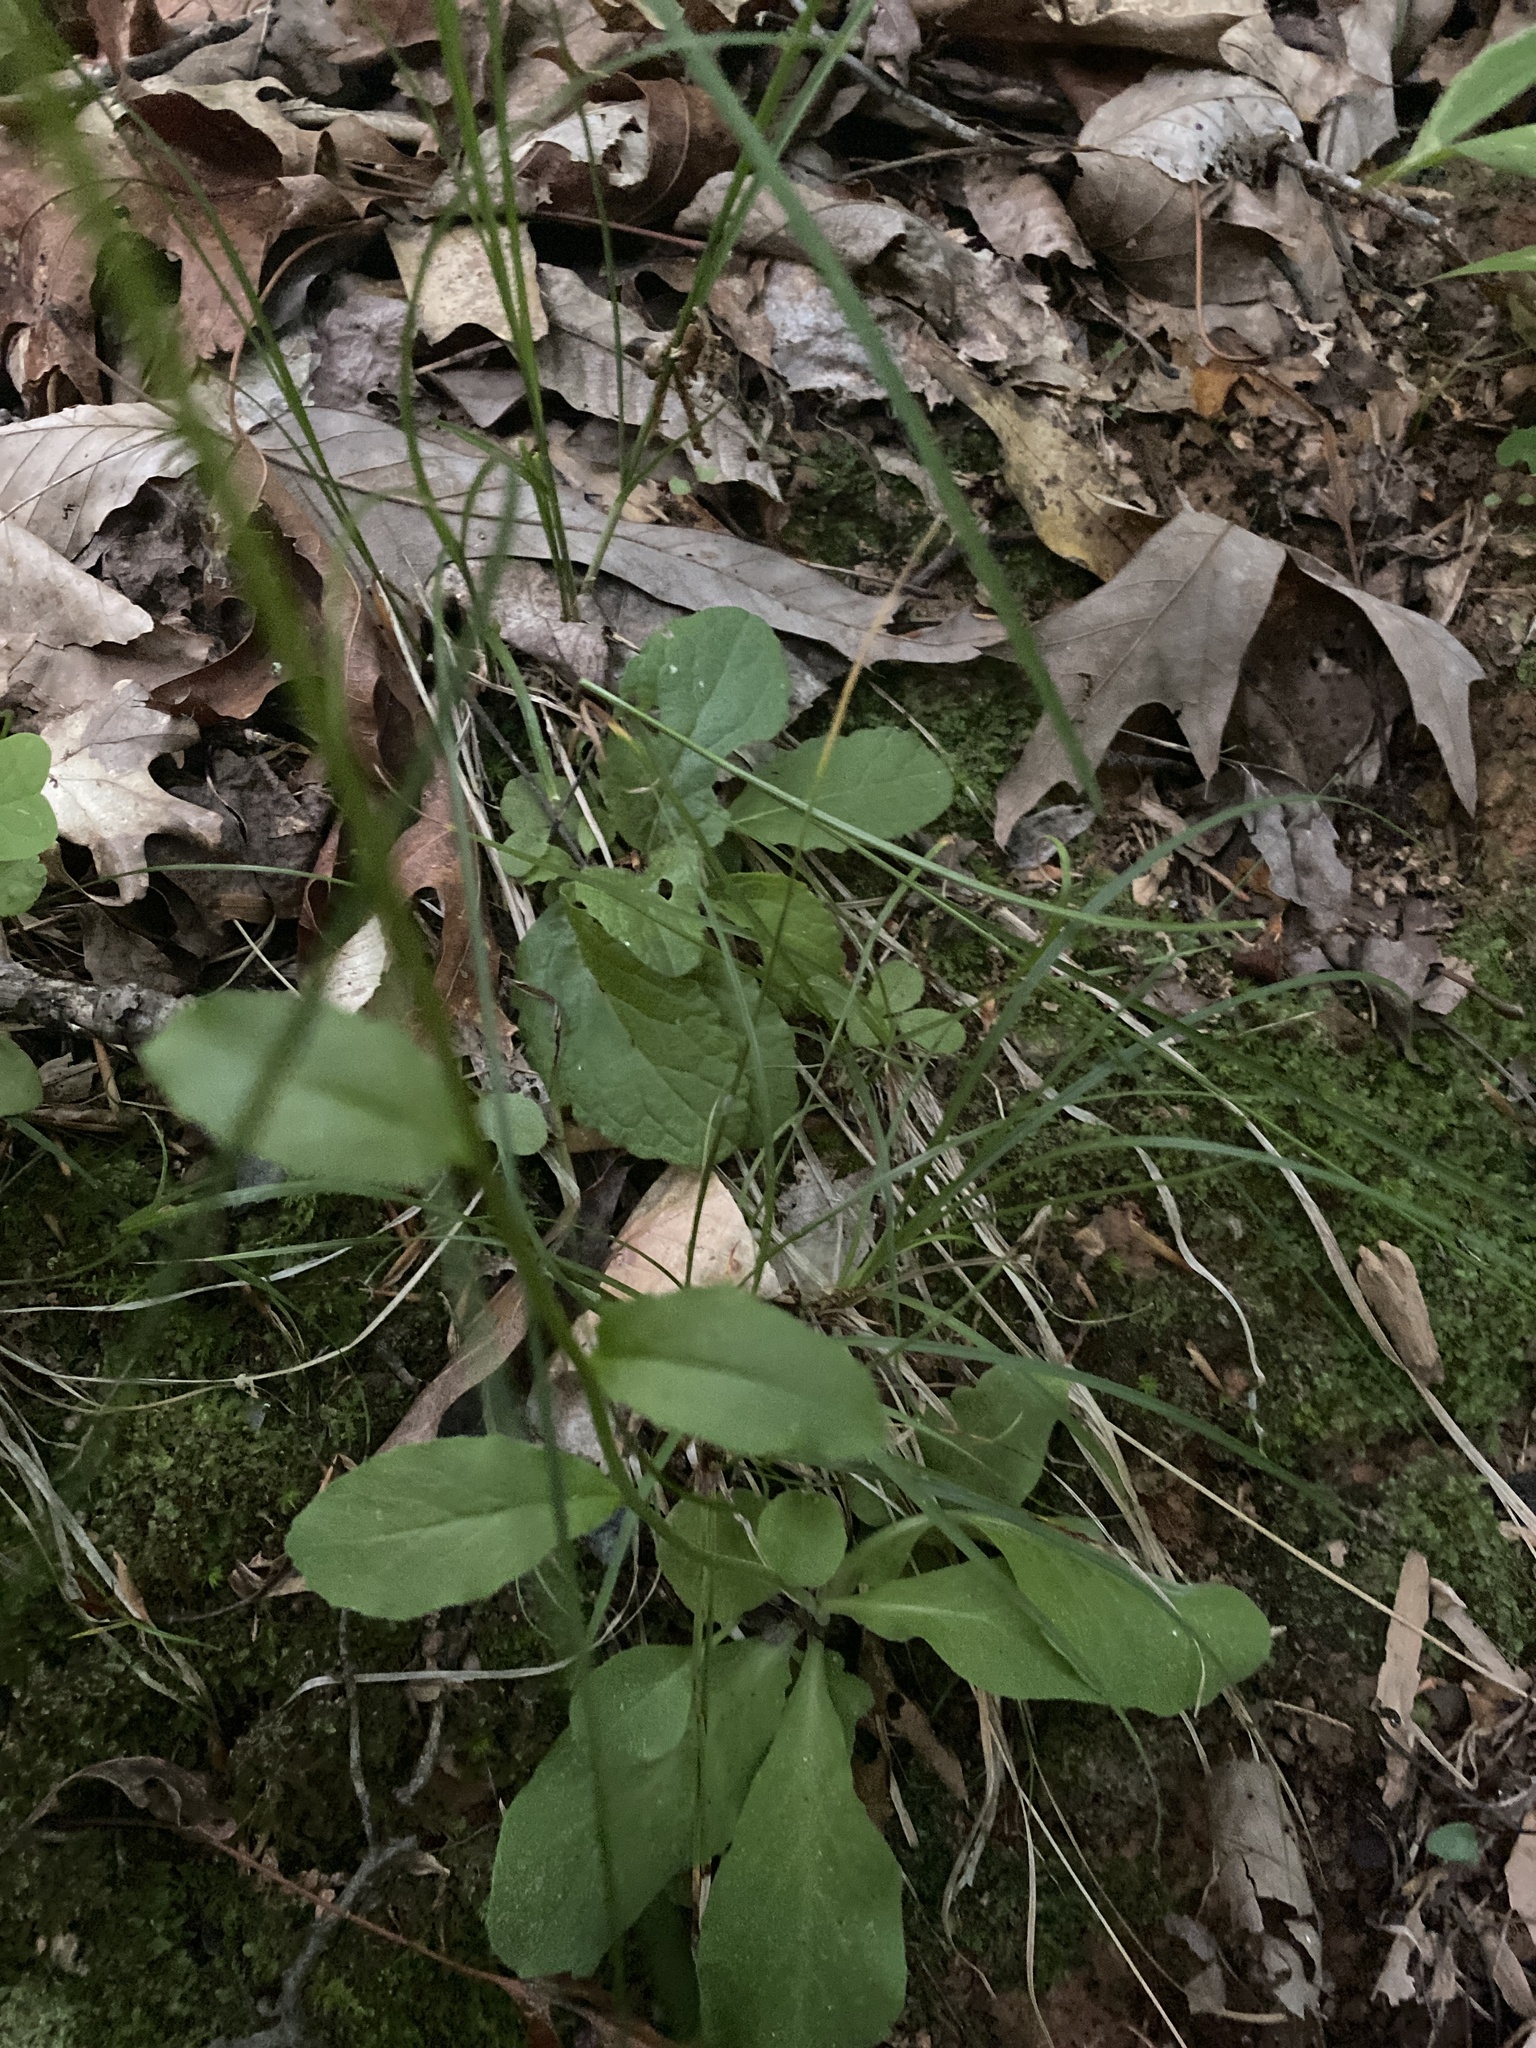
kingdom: Plantae
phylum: Tracheophyta
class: Magnoliopsida
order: Asterales
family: Campanulaceae
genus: Lobelia
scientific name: Lobelia spicata
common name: Pale-spike lobelia
